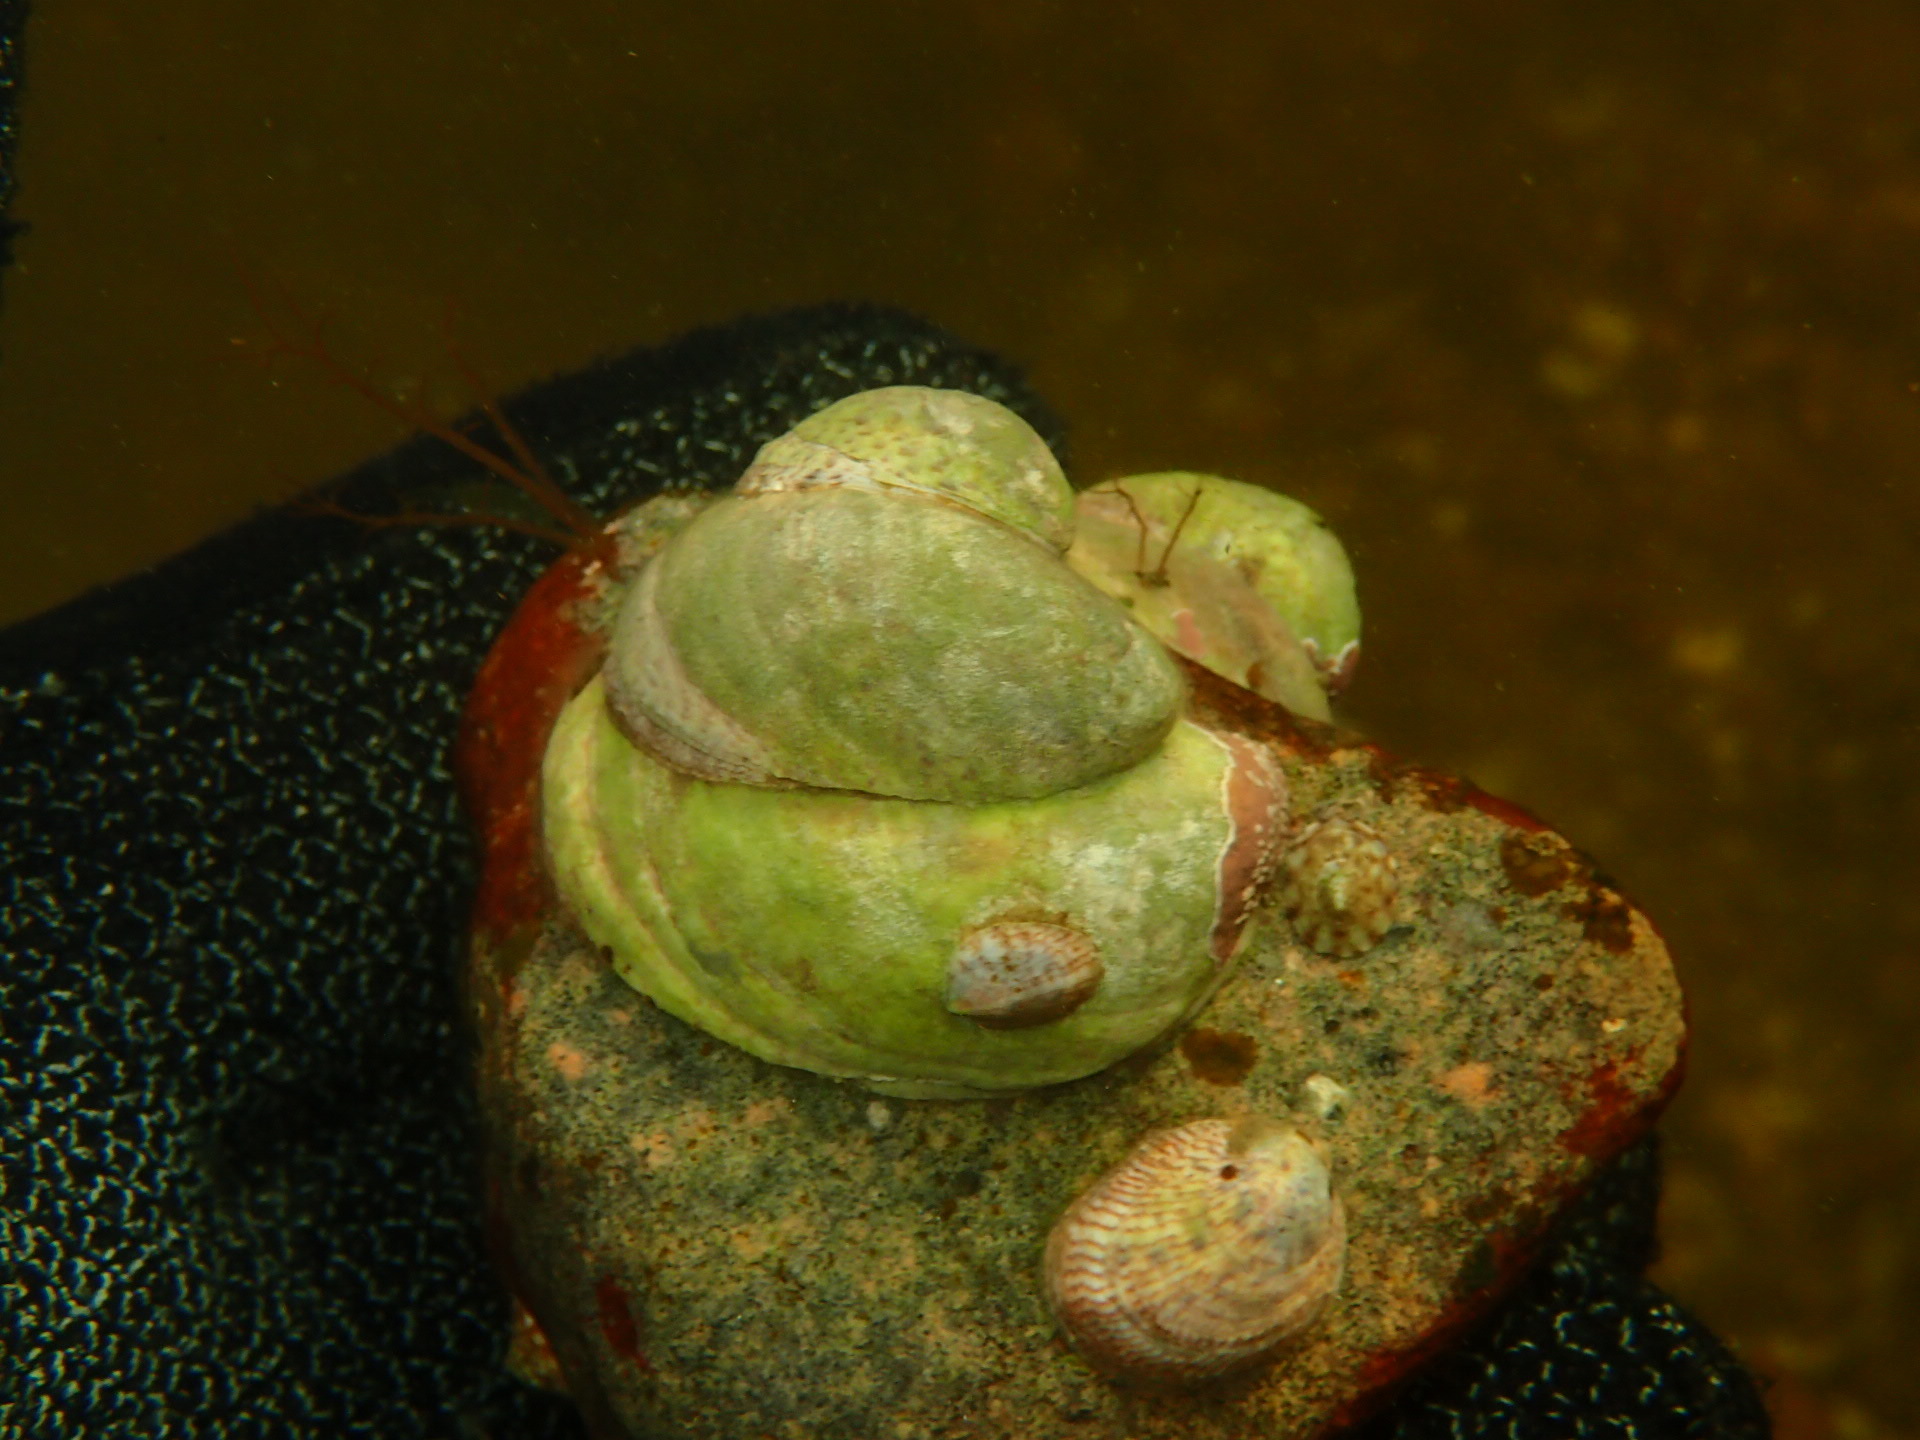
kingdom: Animalia
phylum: Mollusca
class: Gastropoda
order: Littorinimorpha
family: Calyptraeidae
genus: Crepidula
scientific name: Crepidula fornicata
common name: Slipper limpet
